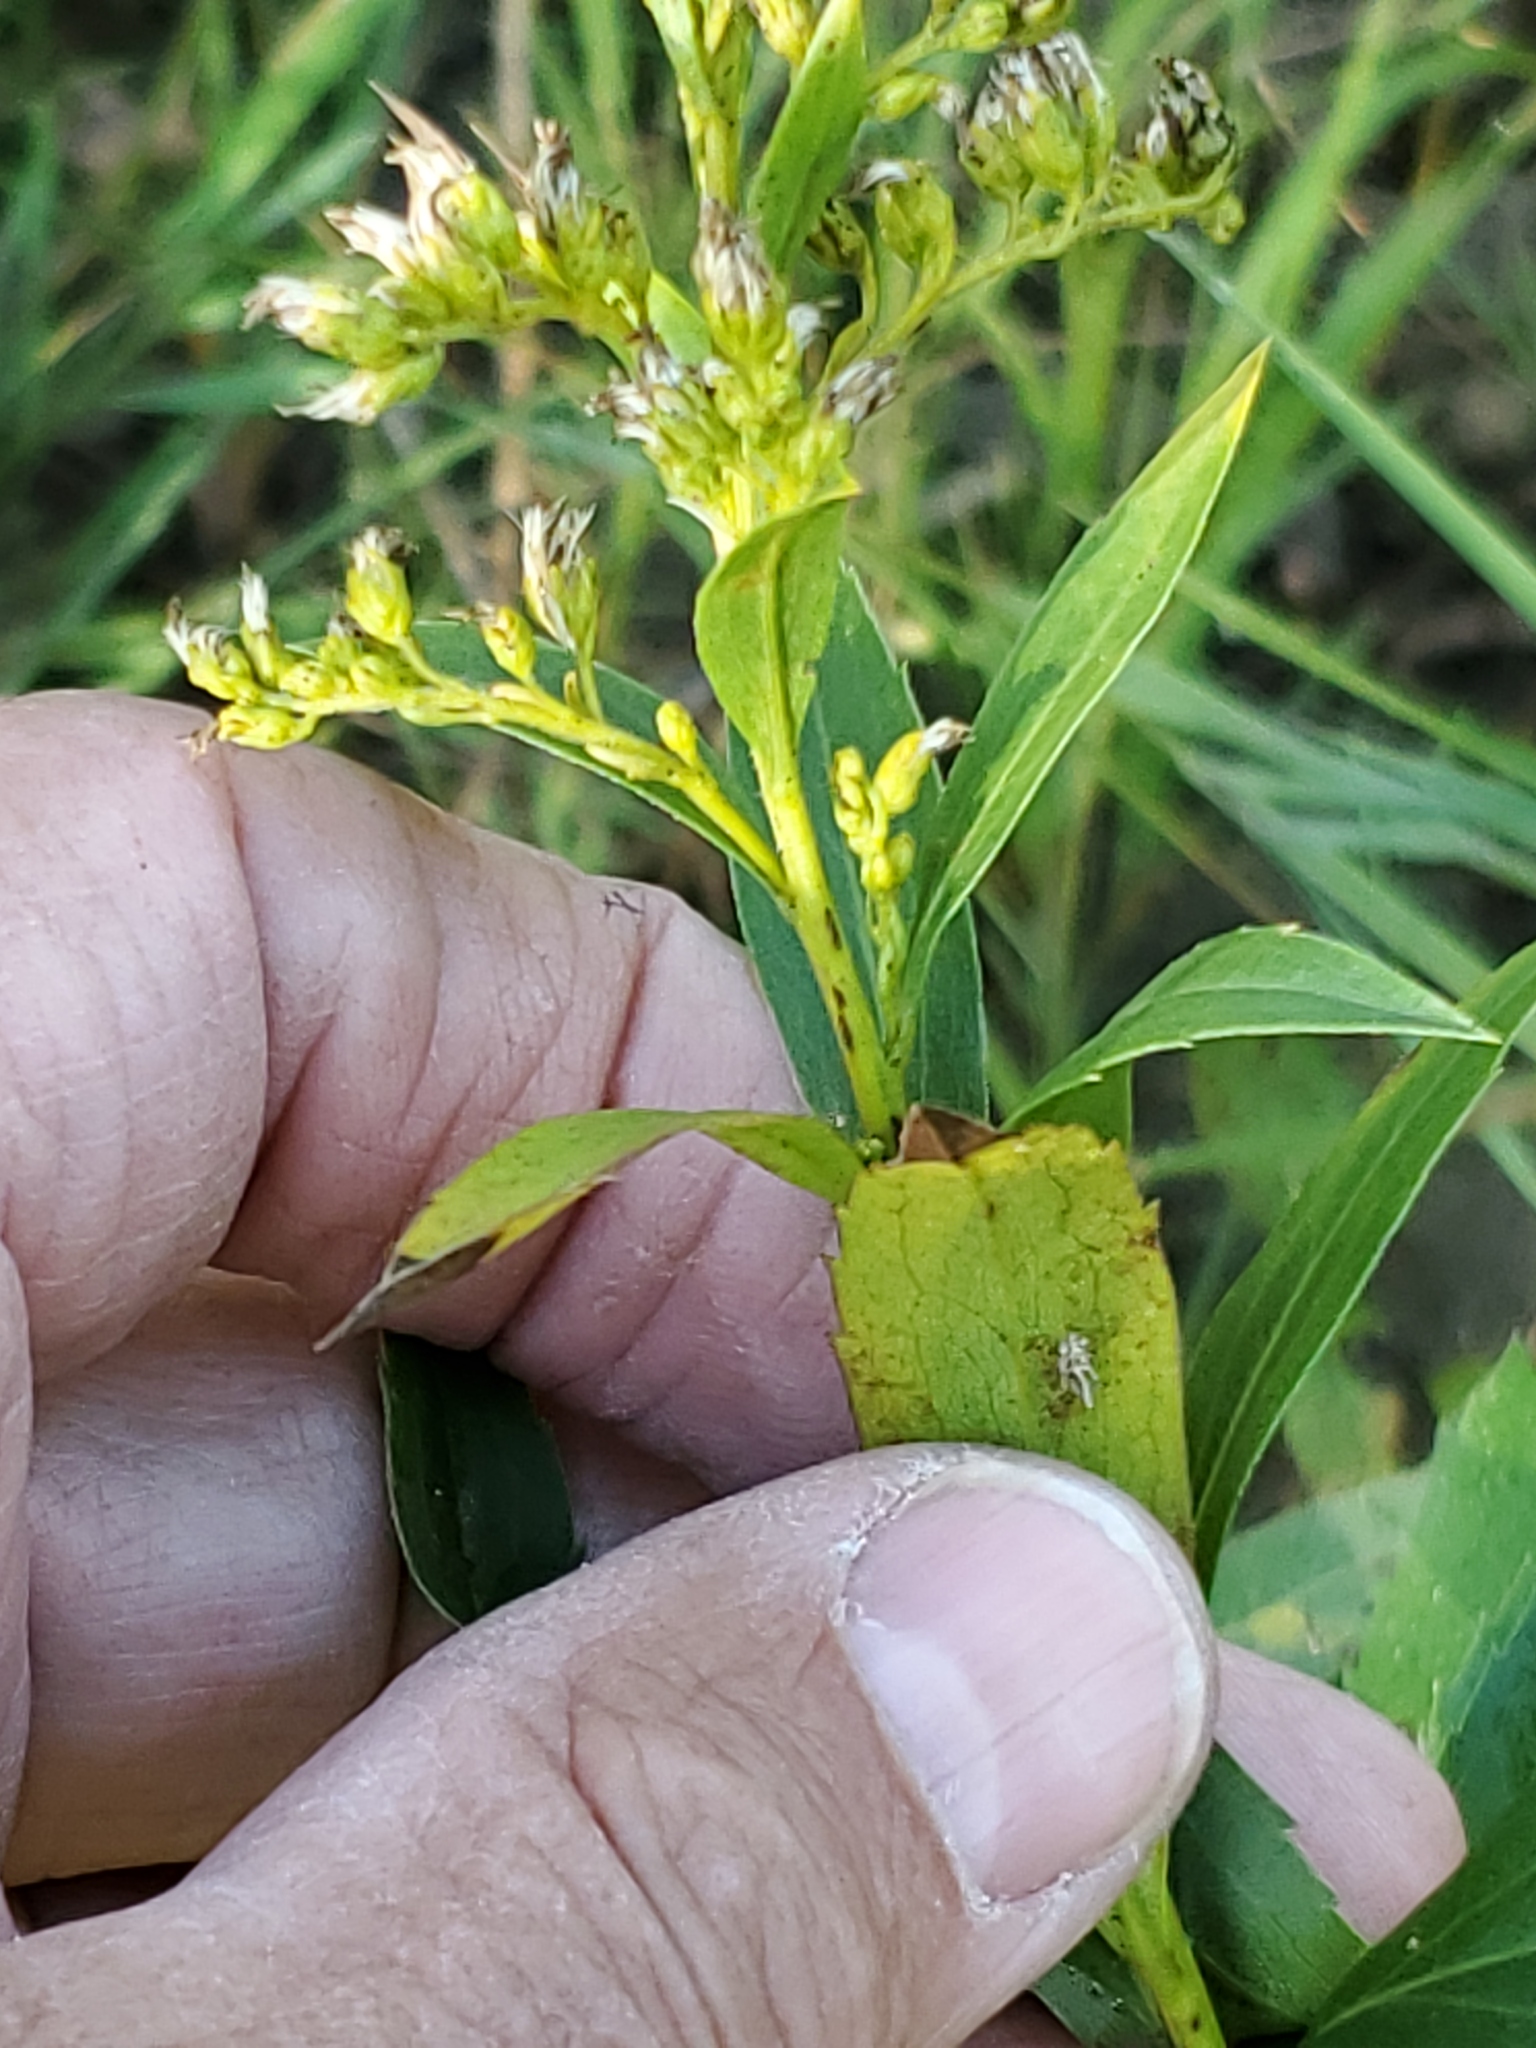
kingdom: Animalia
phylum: Arthropoda
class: Insecta
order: Diptera
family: Cecidomyiidae
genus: Rhopalomyia
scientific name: Rhopalomyia capitata
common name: Giant goldenrod bunch gall midge
